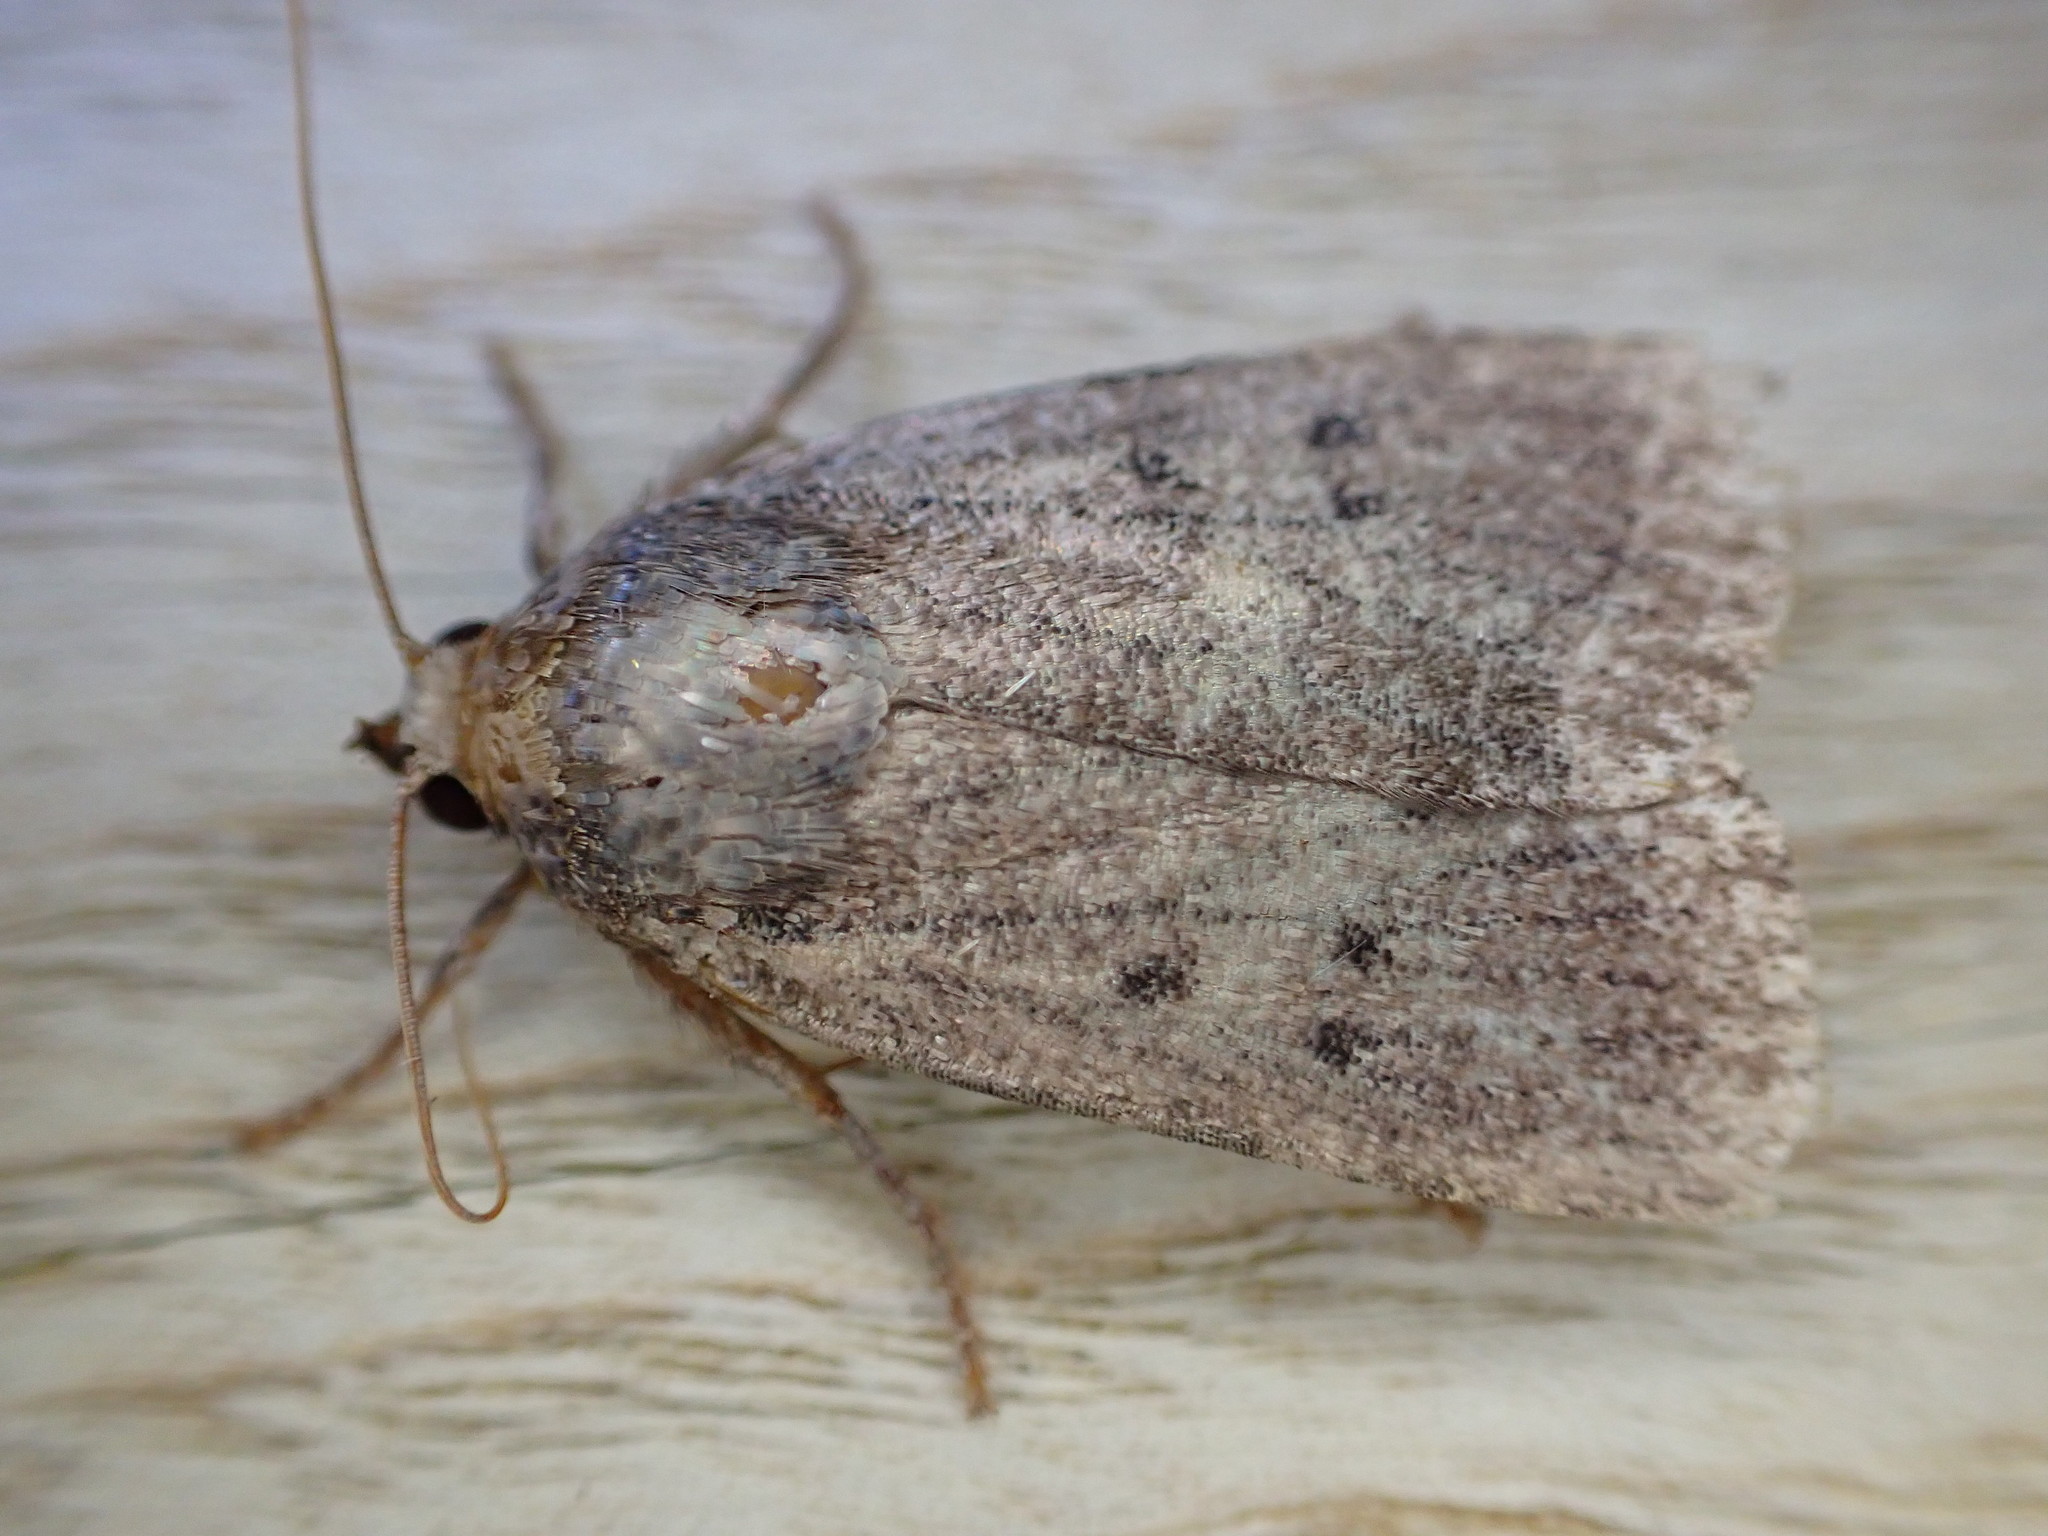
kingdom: Animalia
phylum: Arthropoda
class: Insecta
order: Lepidoptera
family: Noctuidae
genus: Amphipyra
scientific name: Amphipyra tragopoginis
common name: Mouse moth
